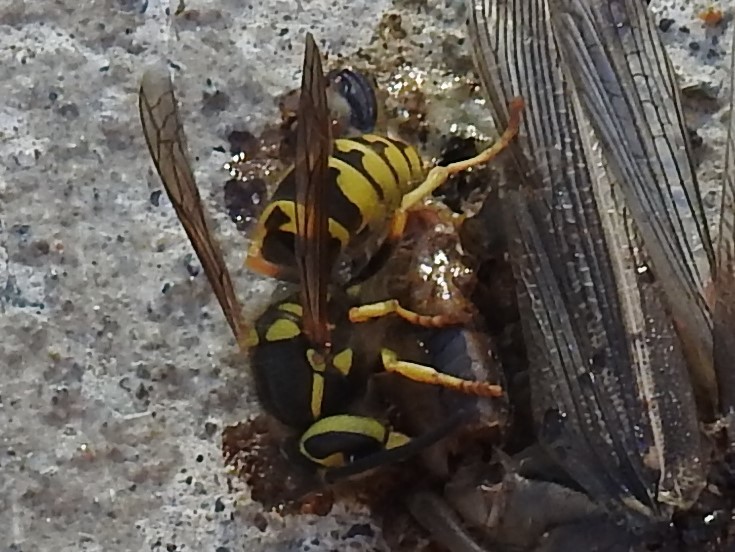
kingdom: Animalia
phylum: Arthropoda
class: Insecta
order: Hymenoptera
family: Vespidae
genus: Vespula
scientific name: Vespula pensylvanica
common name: Western yellowjacket
